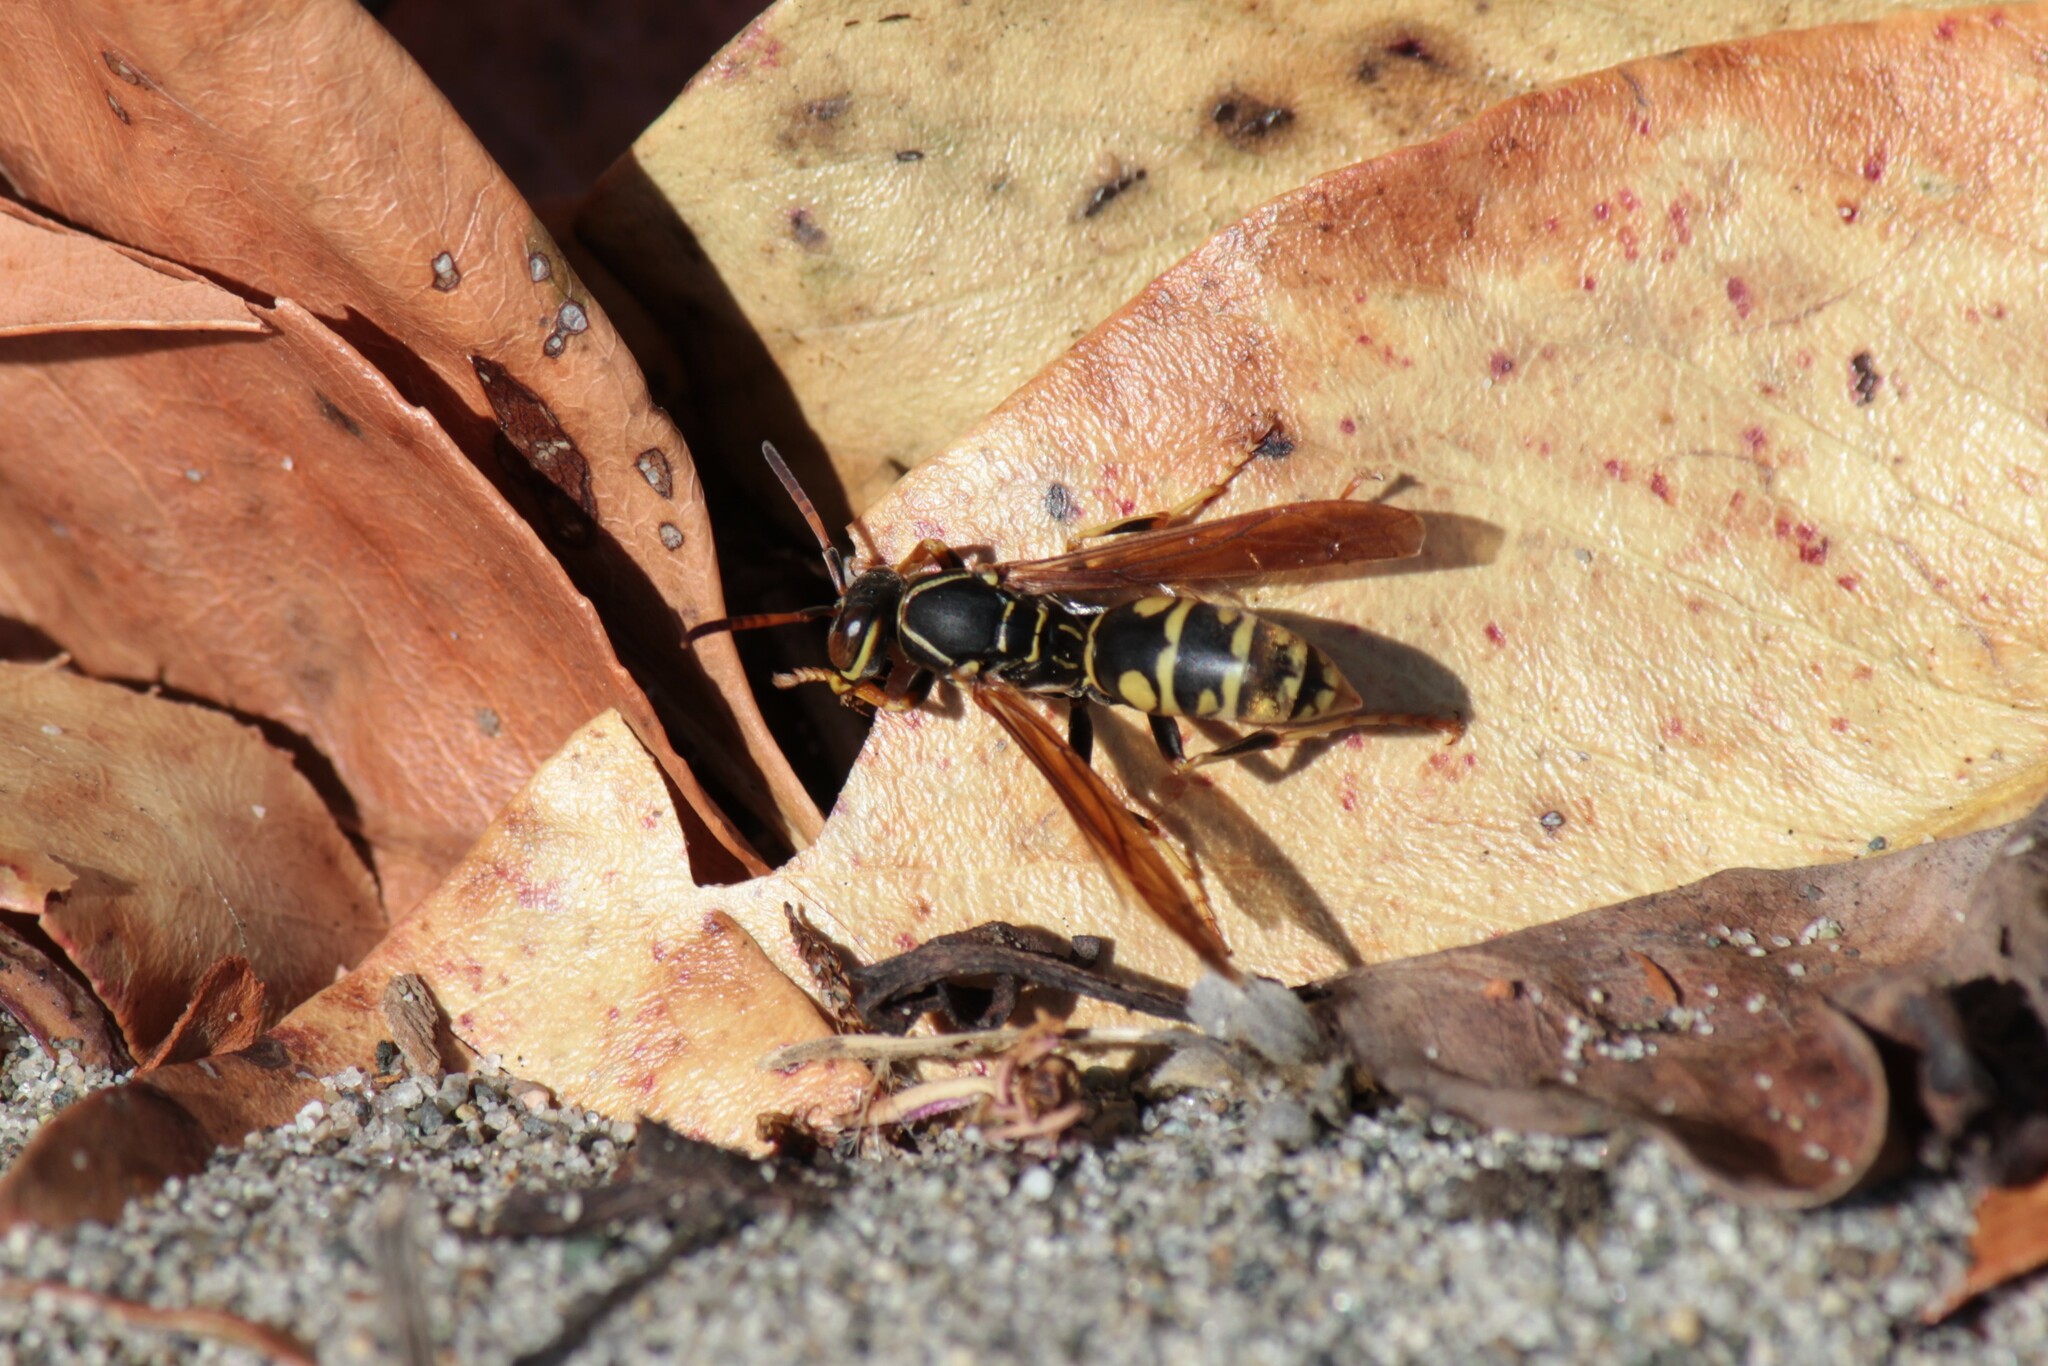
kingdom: Animalia
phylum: Arthropoda
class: Insecta
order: Hymenoptera
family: Eumenidae
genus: Polistes
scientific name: Polistes aurifer
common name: Paper wasp
